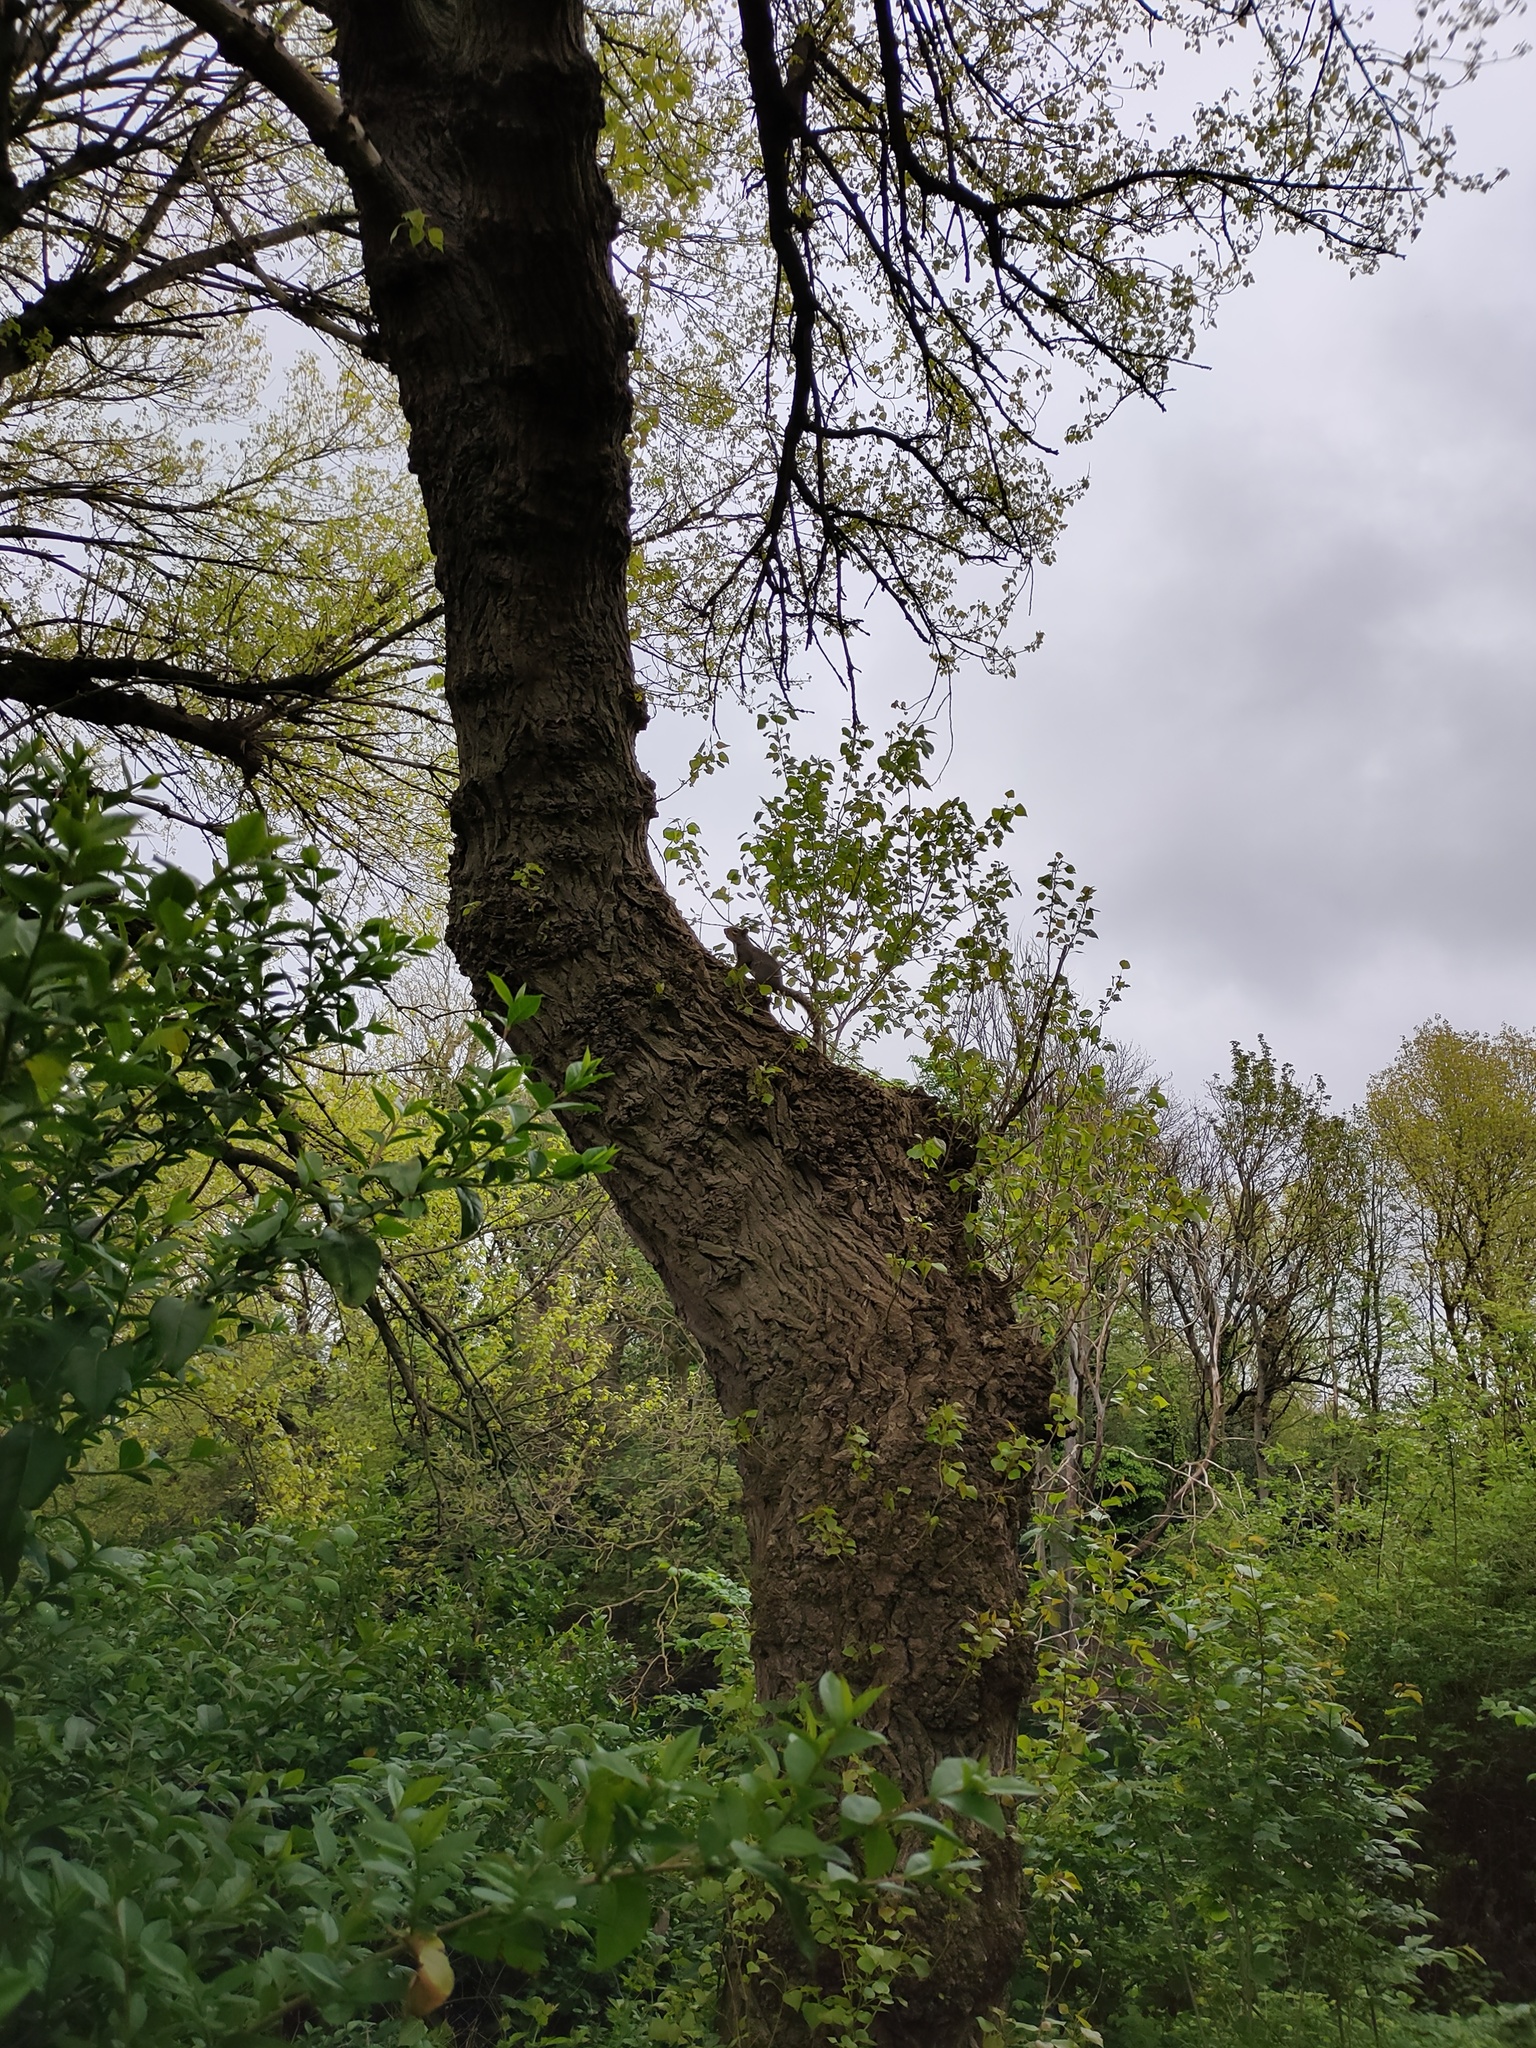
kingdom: Animalia
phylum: Chordata
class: Mammalia
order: Rodentia
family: Sciuridae
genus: Sciurus
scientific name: Sciurus carolinensis
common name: Eastern gray squirrel
